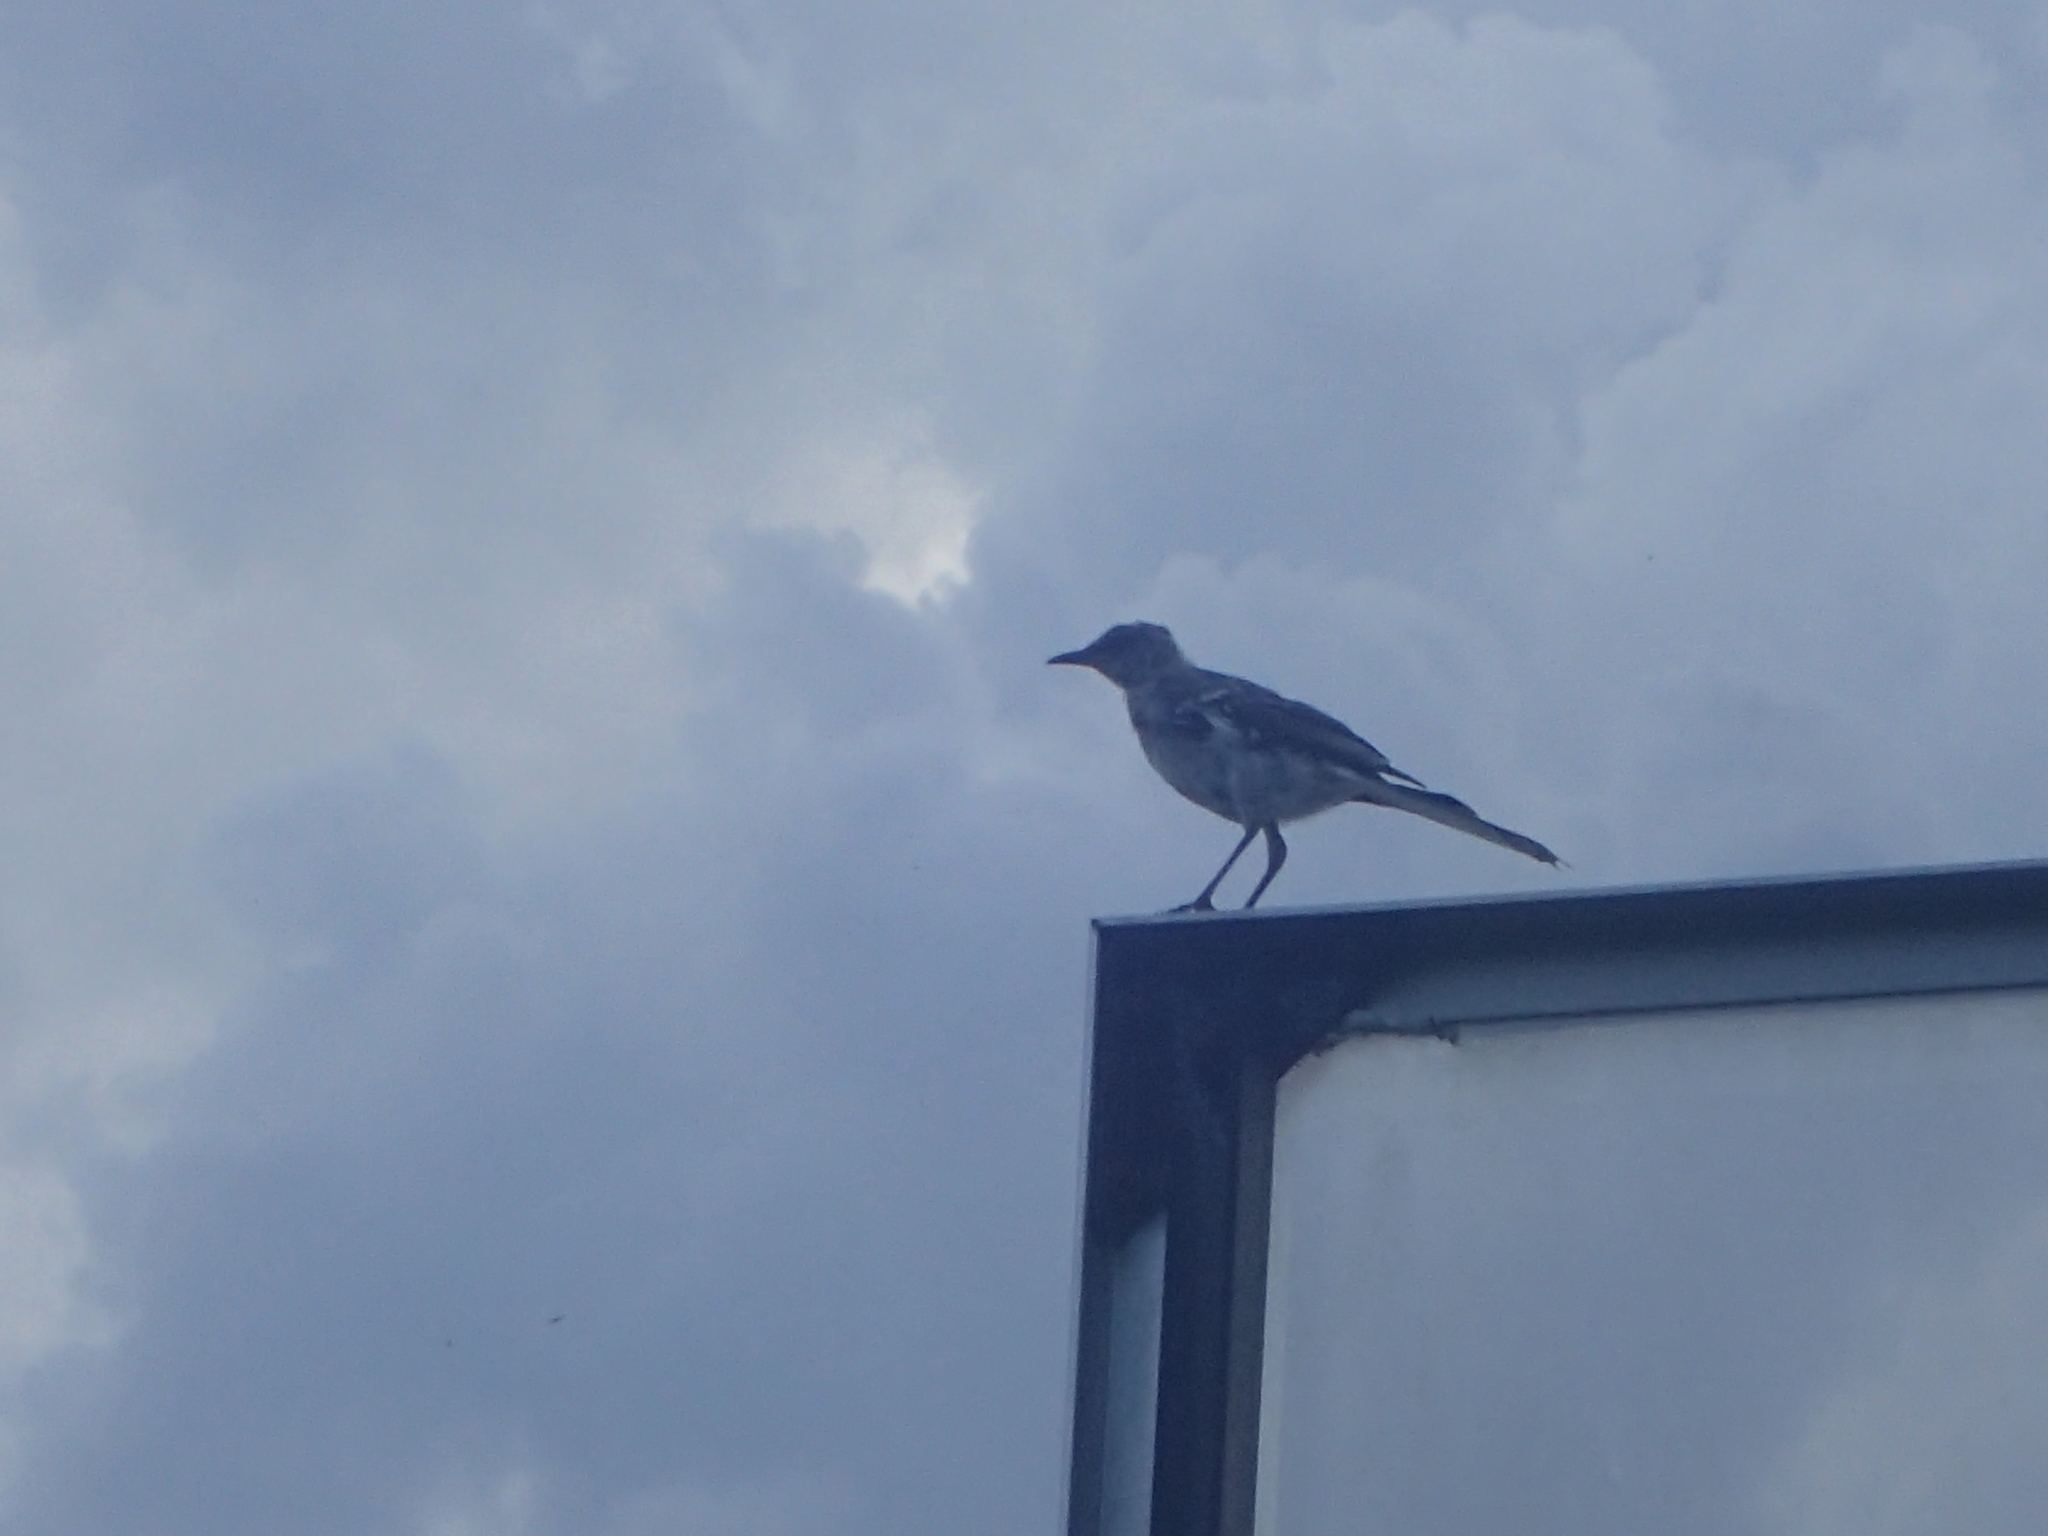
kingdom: Animalia
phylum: Chordata
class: Aves
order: Passeriformes
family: Mimidae
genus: Mimus
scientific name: Mimus polyglottos
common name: Northern mockingbird
